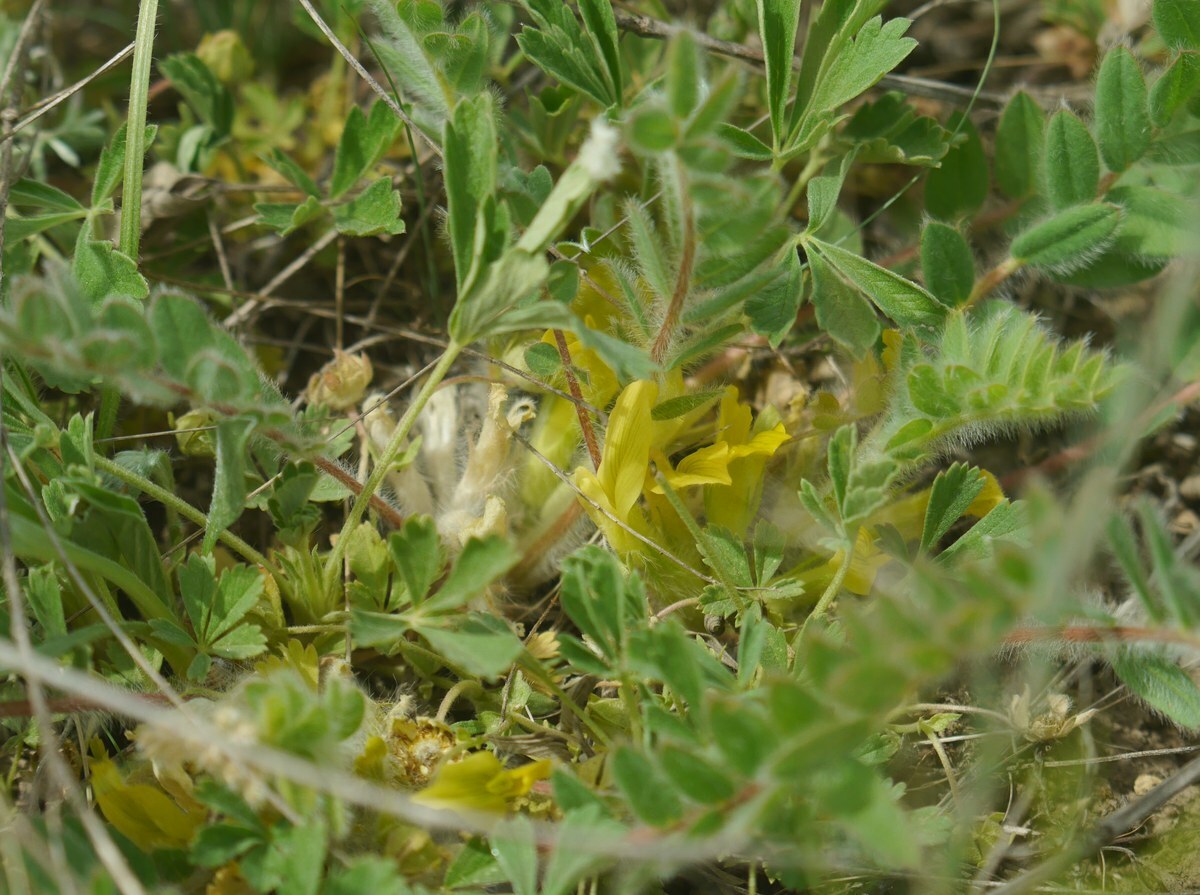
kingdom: Plantae
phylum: Tracheophyta
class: Magnoliopsida
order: Fabales
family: Fabaceae
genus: Astragalus
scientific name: Astragalus exscapus
